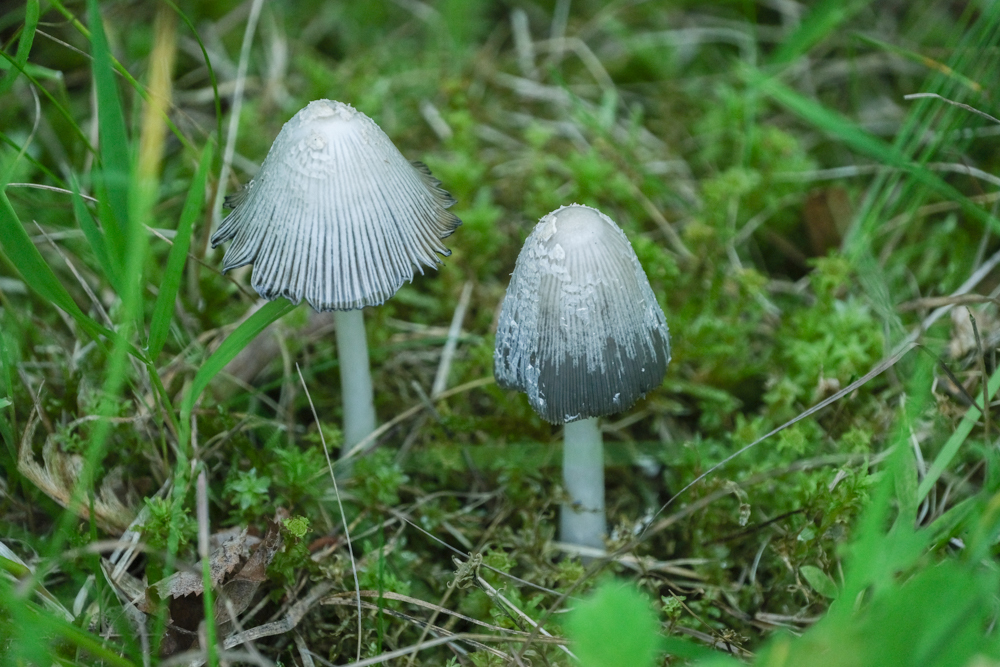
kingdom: Fungi
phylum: Basidiomycota
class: Agaricomycetes
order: Agaricales
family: Psathyrellaceae
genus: Coprinopsis
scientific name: Coprinopsis stangliana
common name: Pied inkcap
